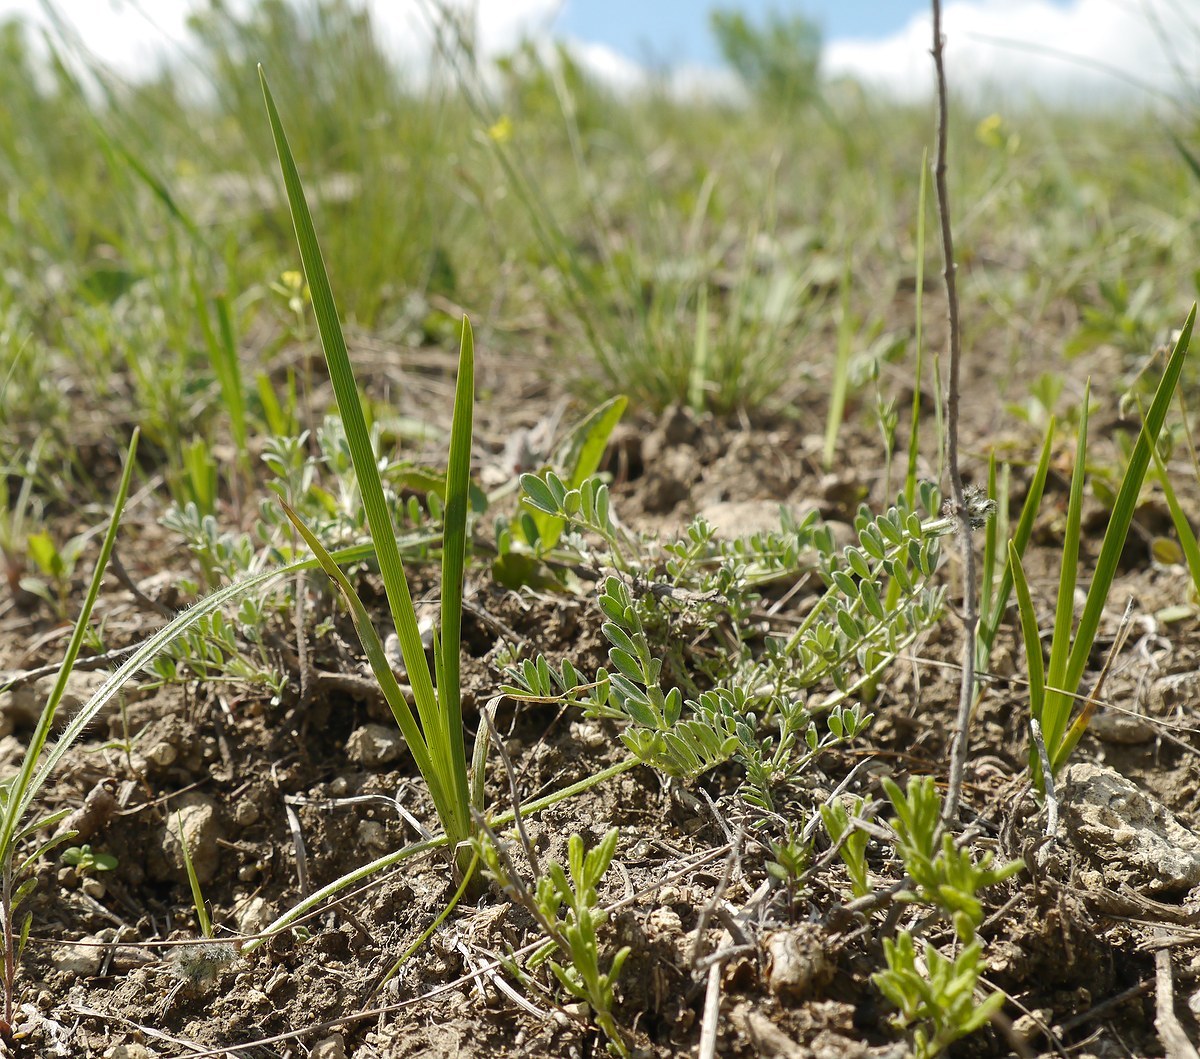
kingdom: Plantae
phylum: Tracheophyta
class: Liliopsida
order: Asparagales
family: Iridaceae
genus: Iris
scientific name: Iris pontica
